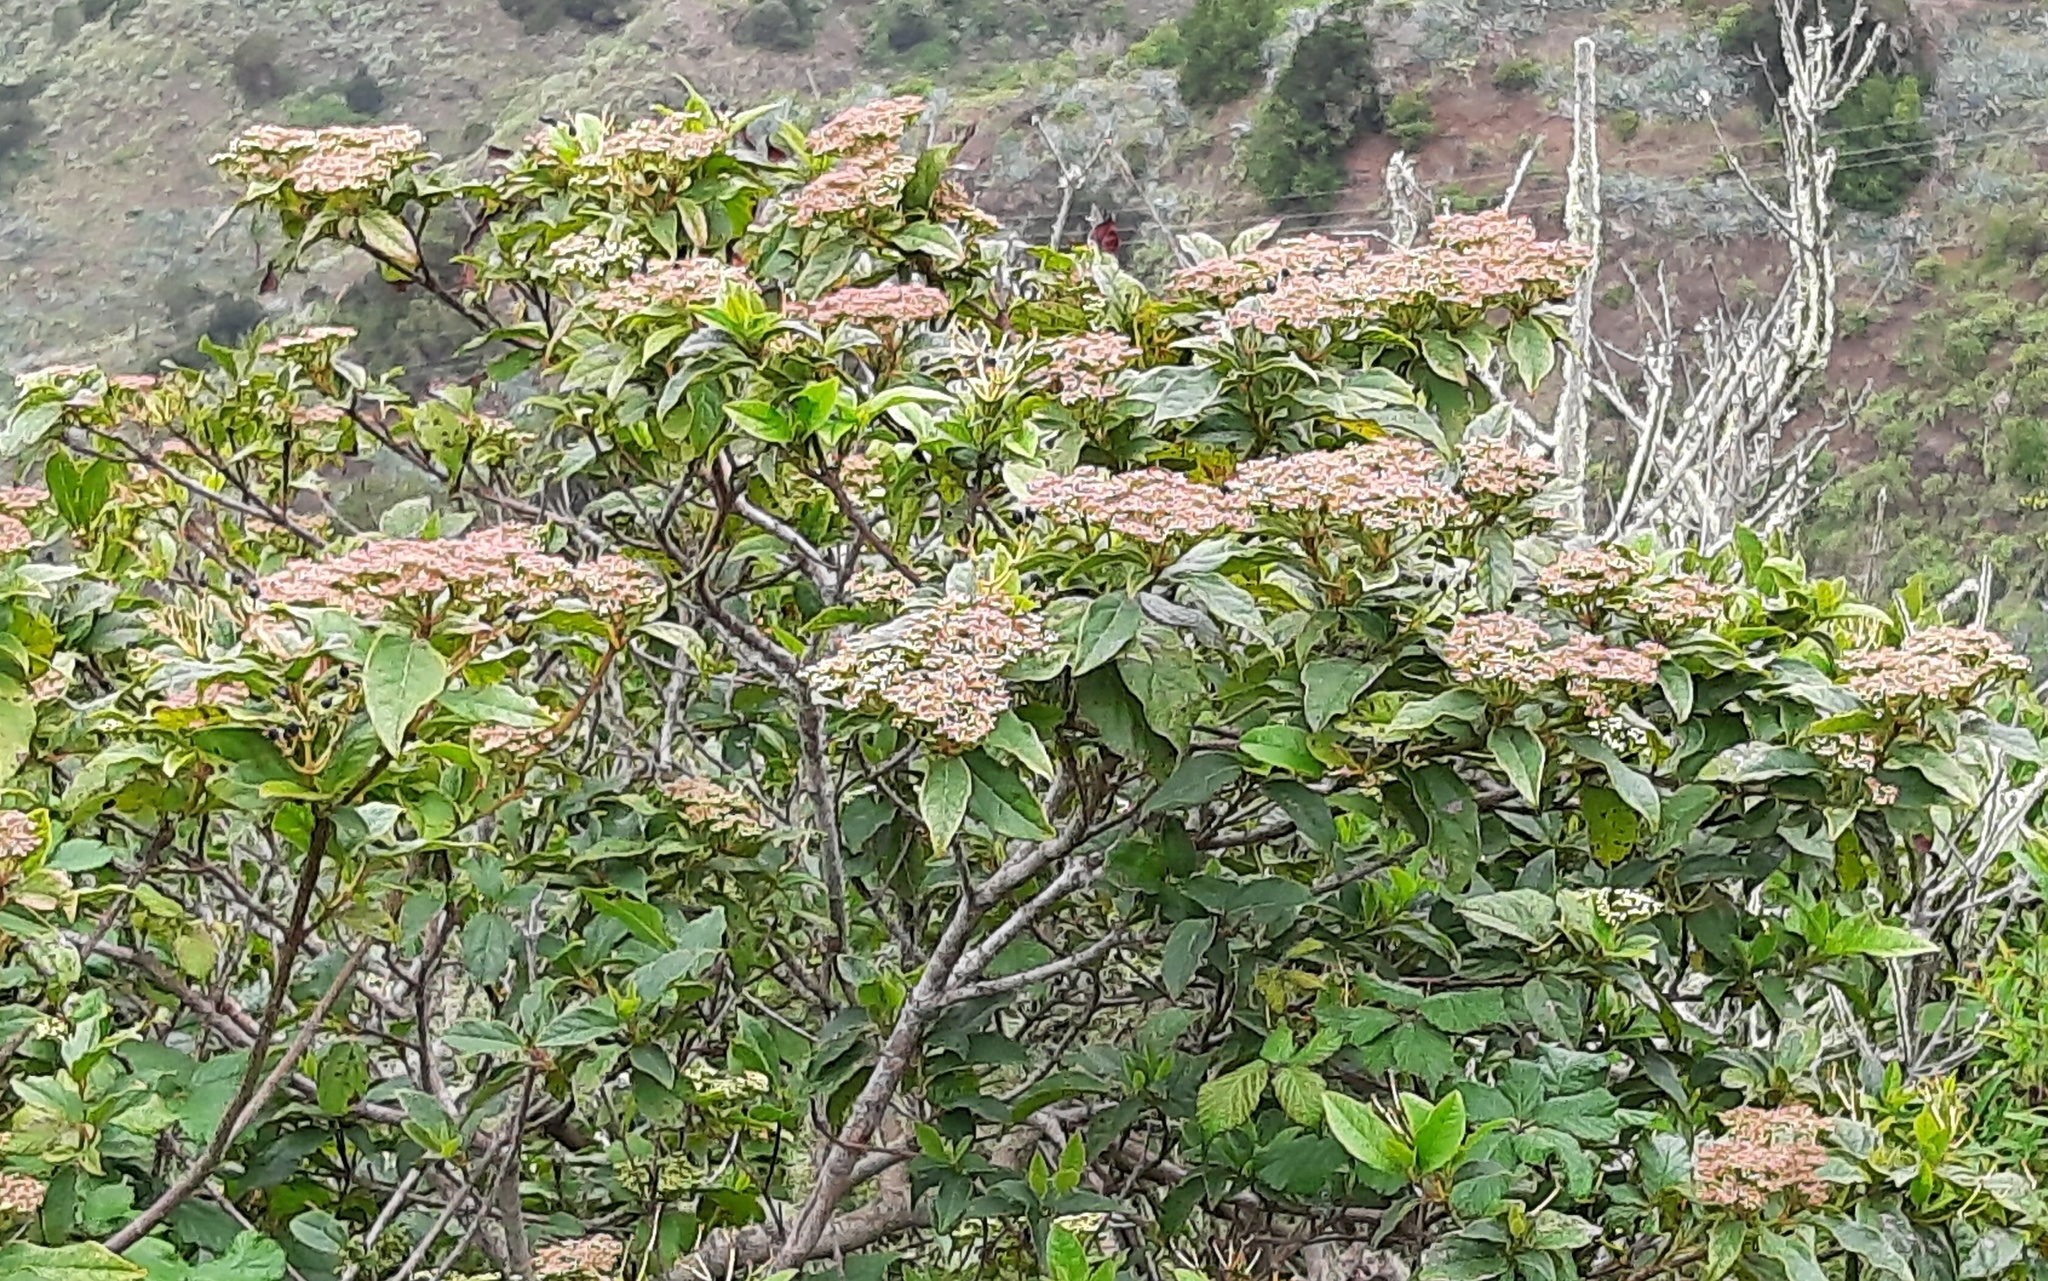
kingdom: Plantae
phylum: Tracheophyta
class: Magnoliopsida
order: Dipsacales
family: Viburnaceae
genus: Viburnum
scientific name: Viburnum rugosum
